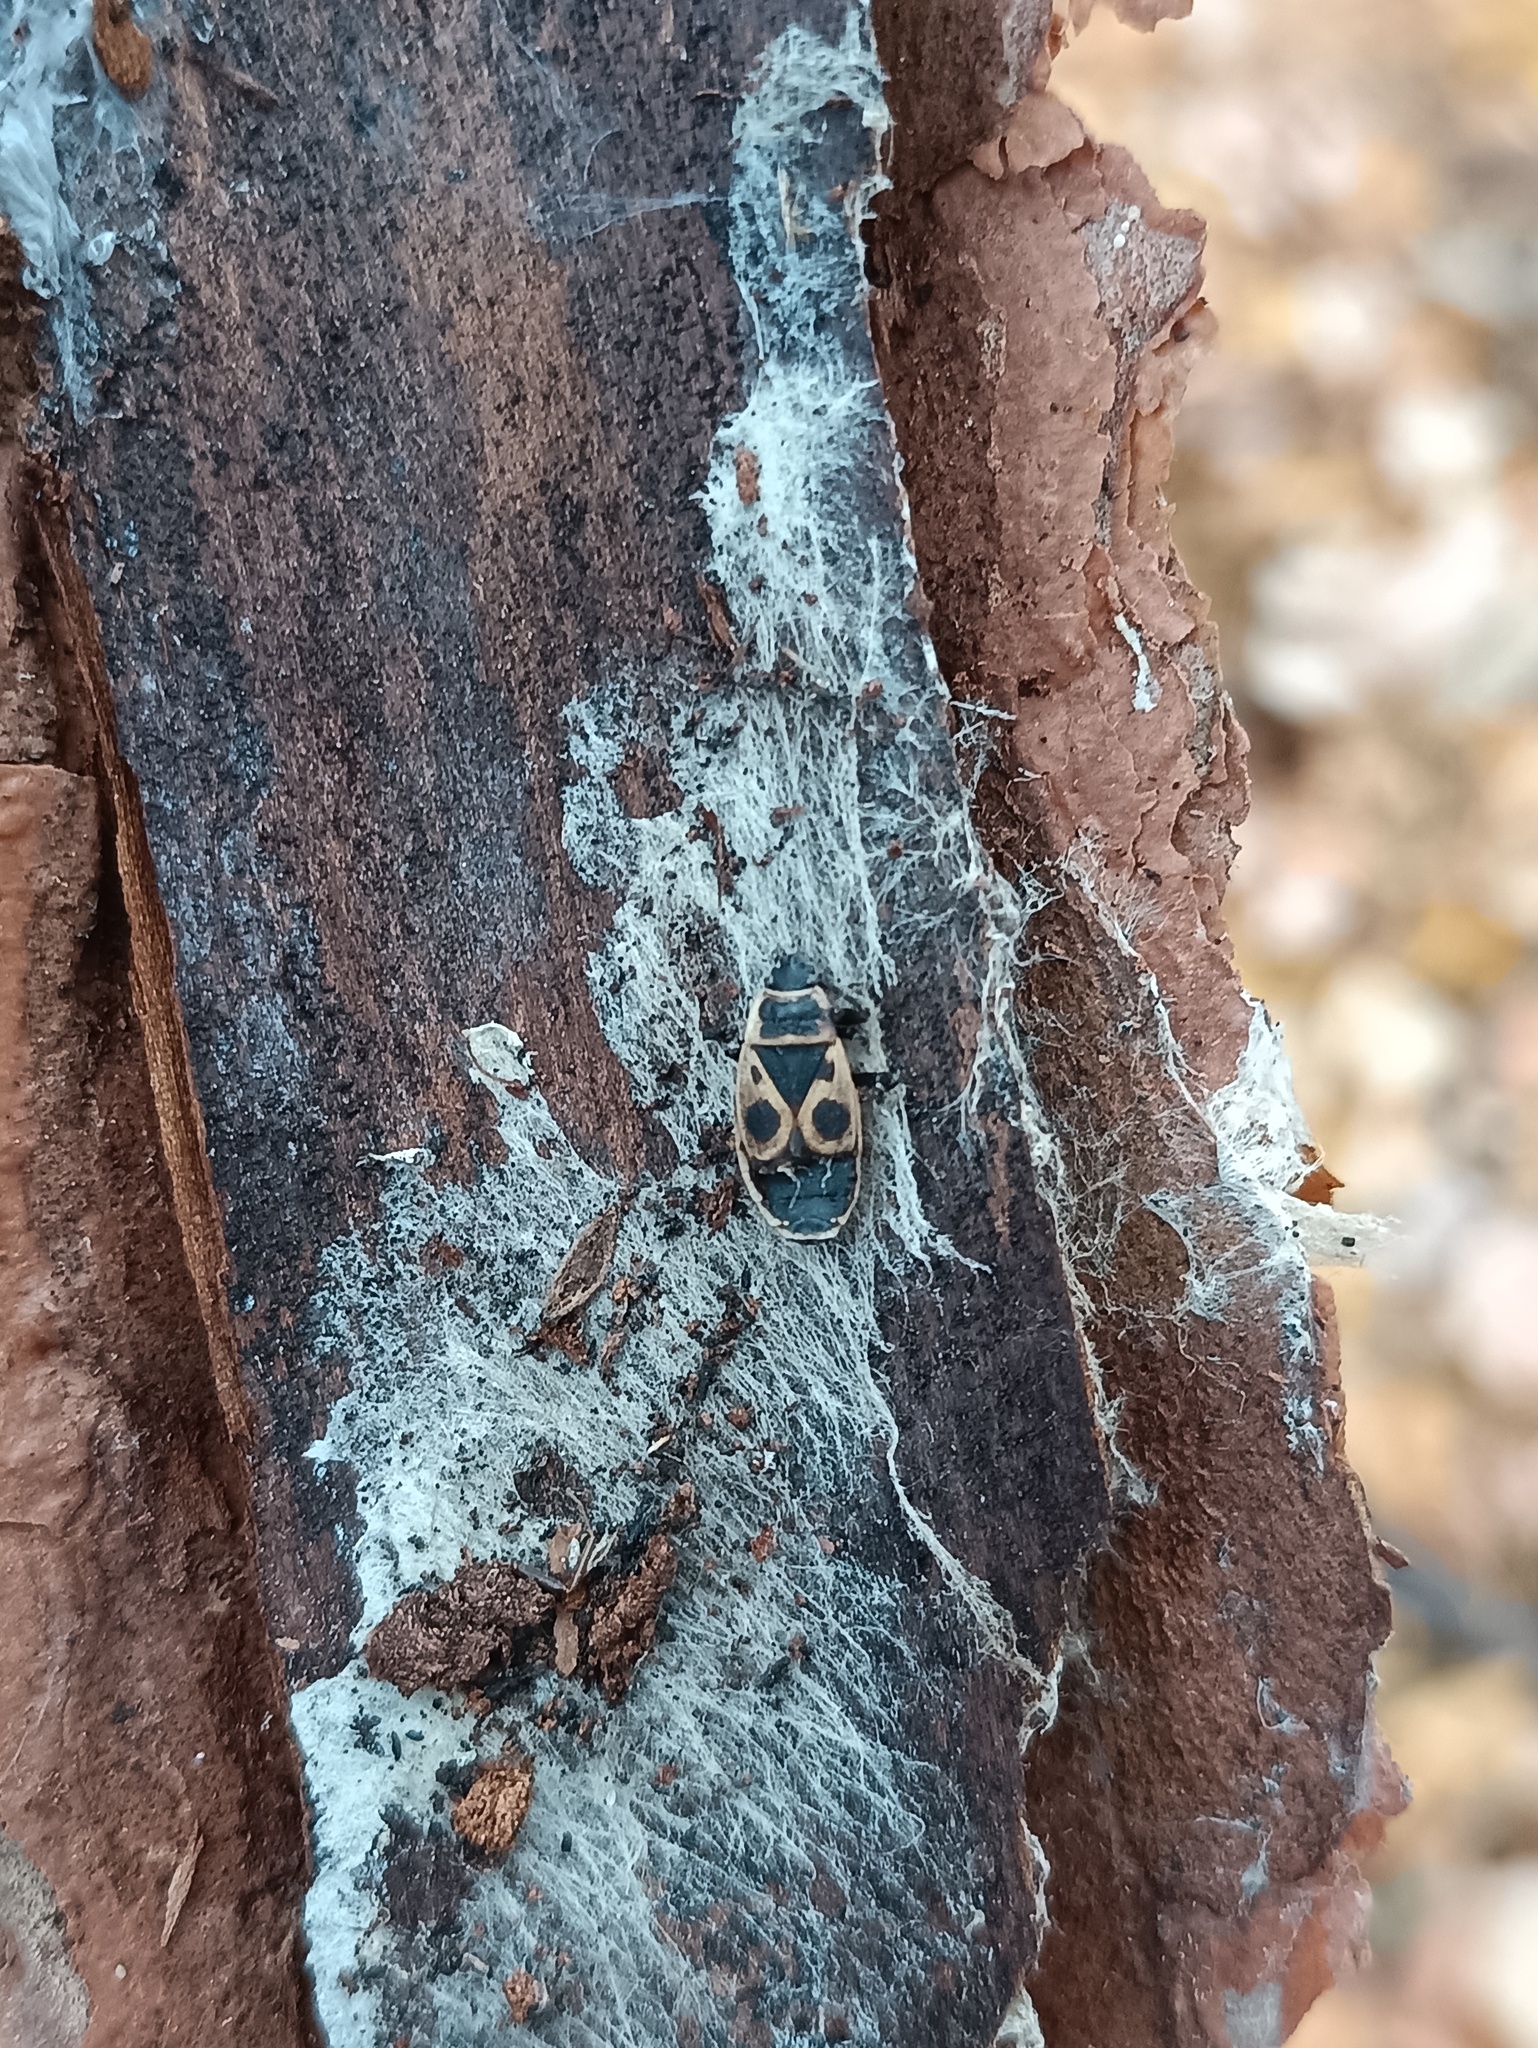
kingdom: Animalia
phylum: Arthropoda
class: Insecta
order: Hemiptera
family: Pyrrhocoridae
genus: Pyrrhocoris
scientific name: Pyrrhocoris apterus
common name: Firebug
